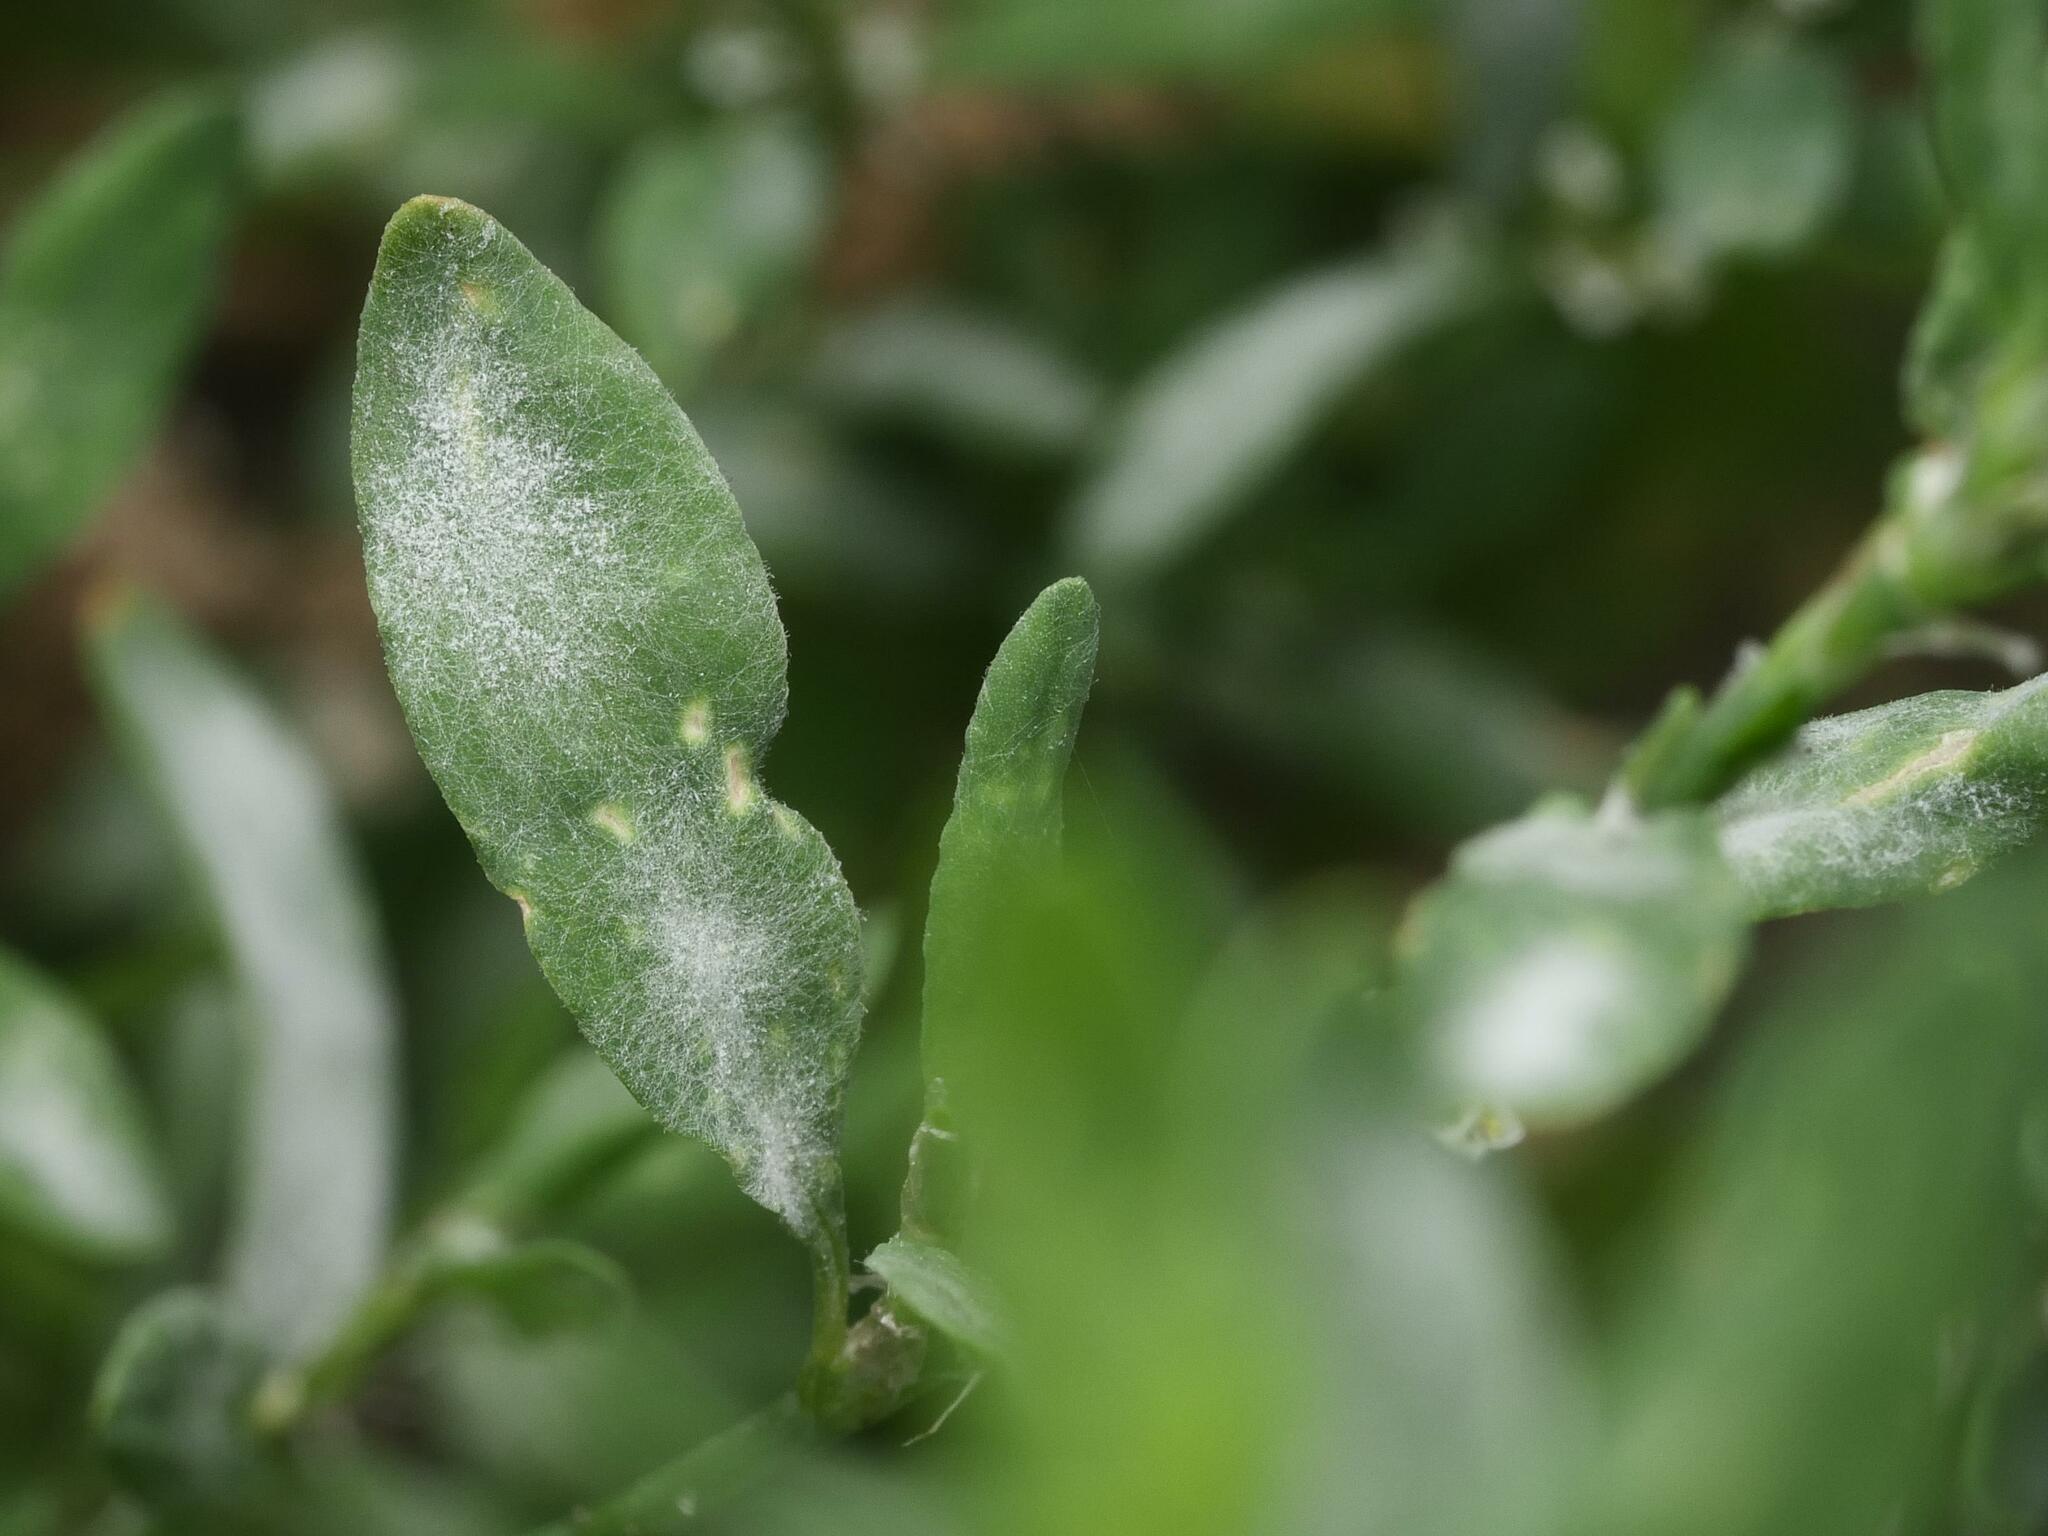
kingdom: Fungi
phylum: Ascomycota
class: Leotiomycetes
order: Helotiales
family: Erysiphaceae
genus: Erysiphe
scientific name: Erysiphe polygoni
